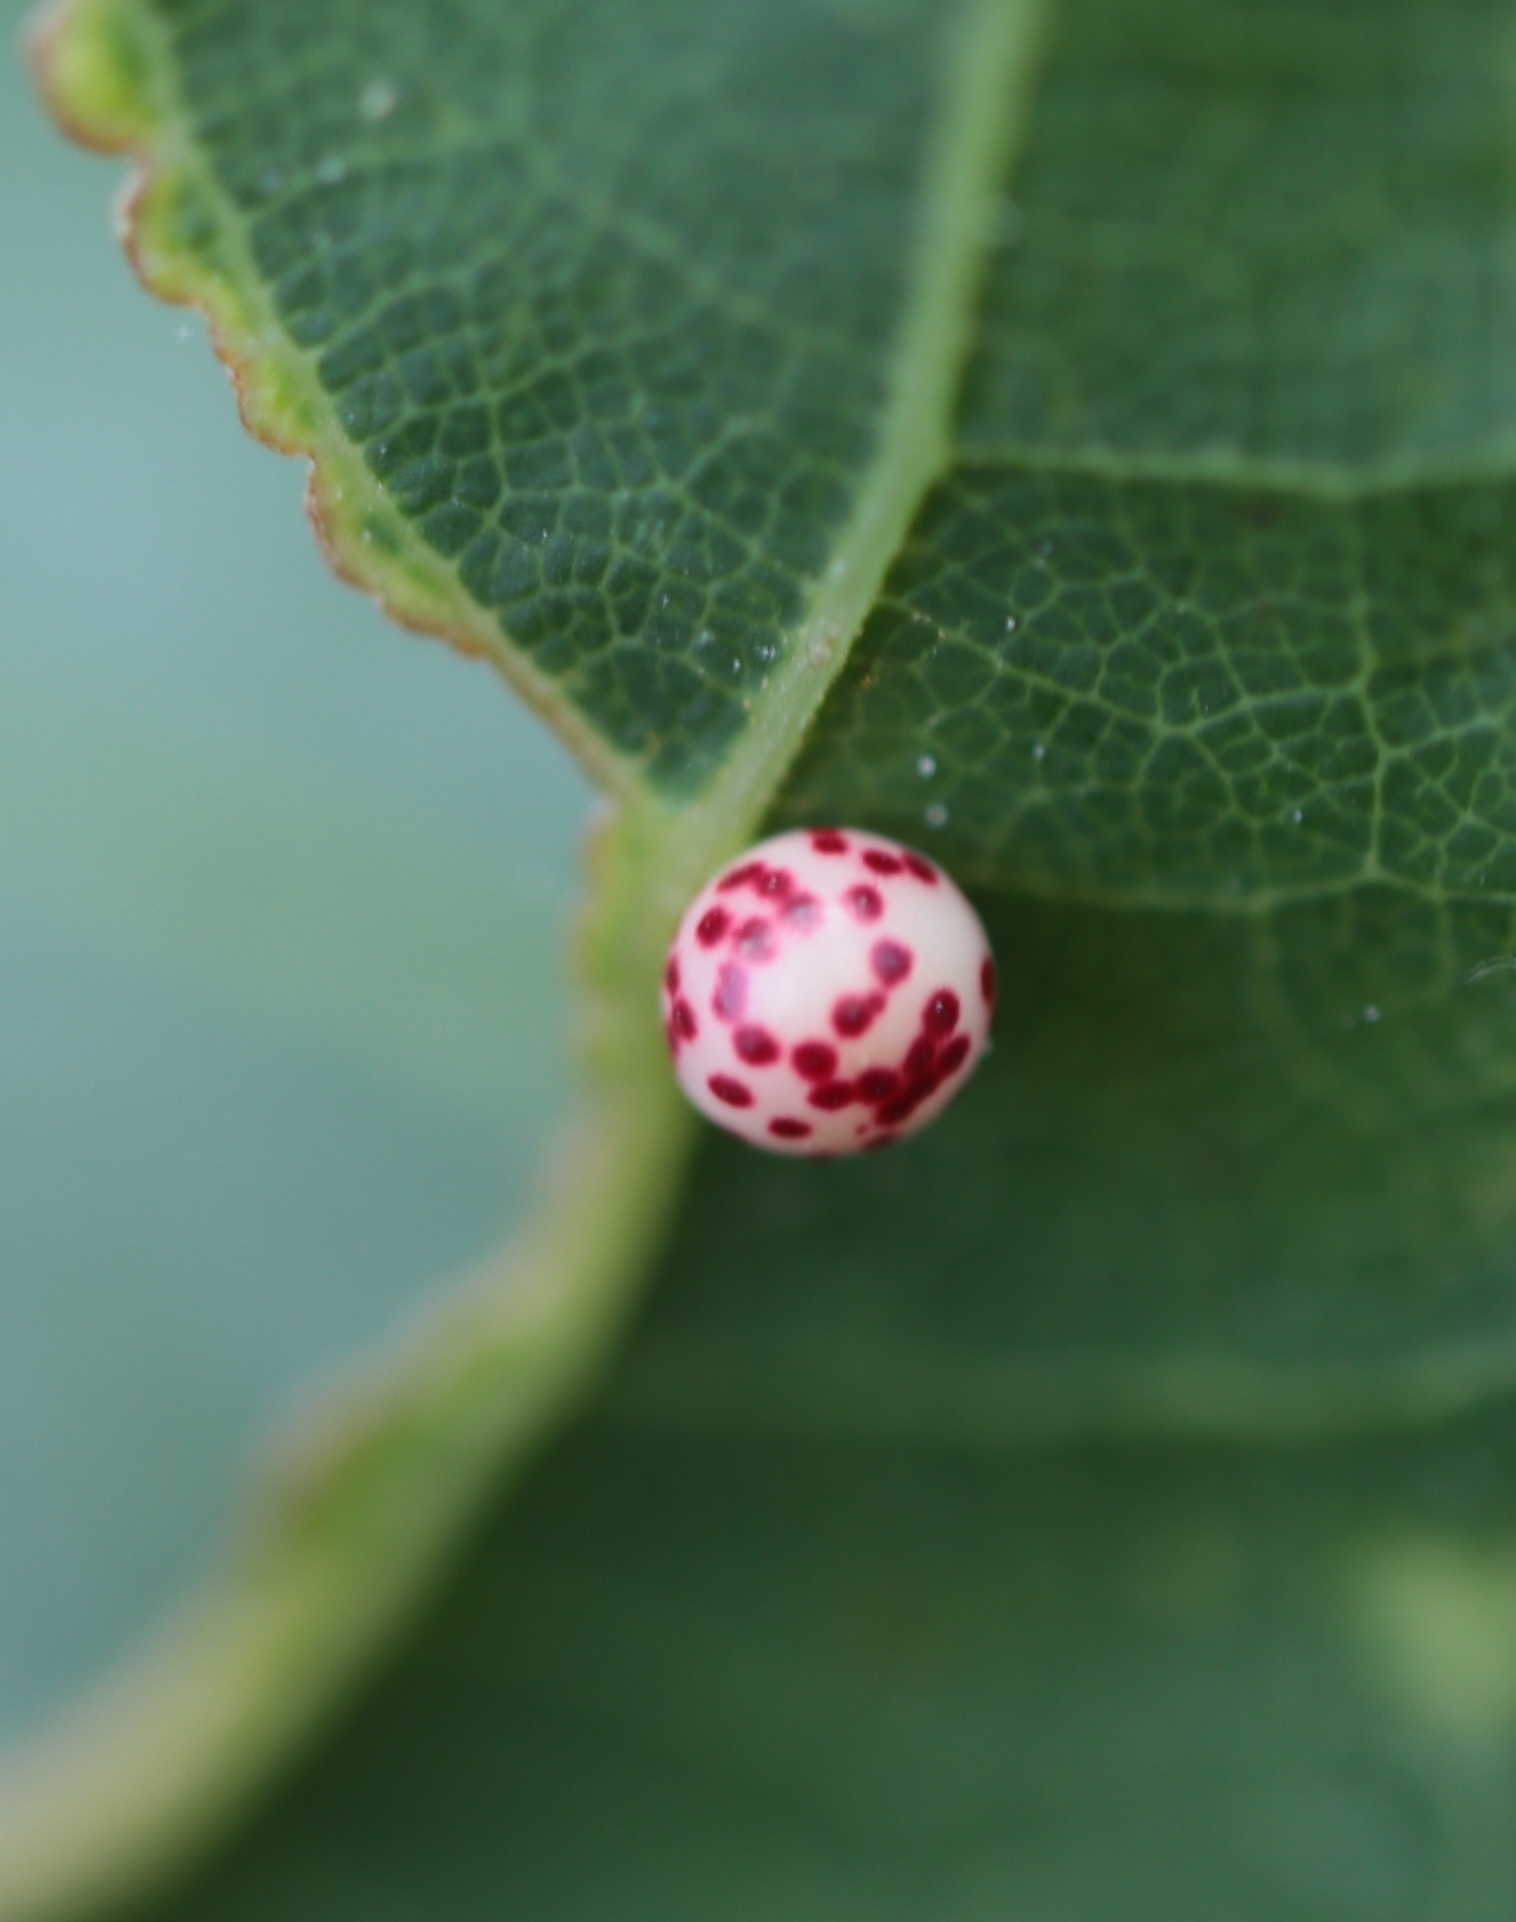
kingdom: Animalia
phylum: Arthropoda
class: Insecta
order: Hymenoptera
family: Cynipidae
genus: Zopheroteras
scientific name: Zopheroteras
